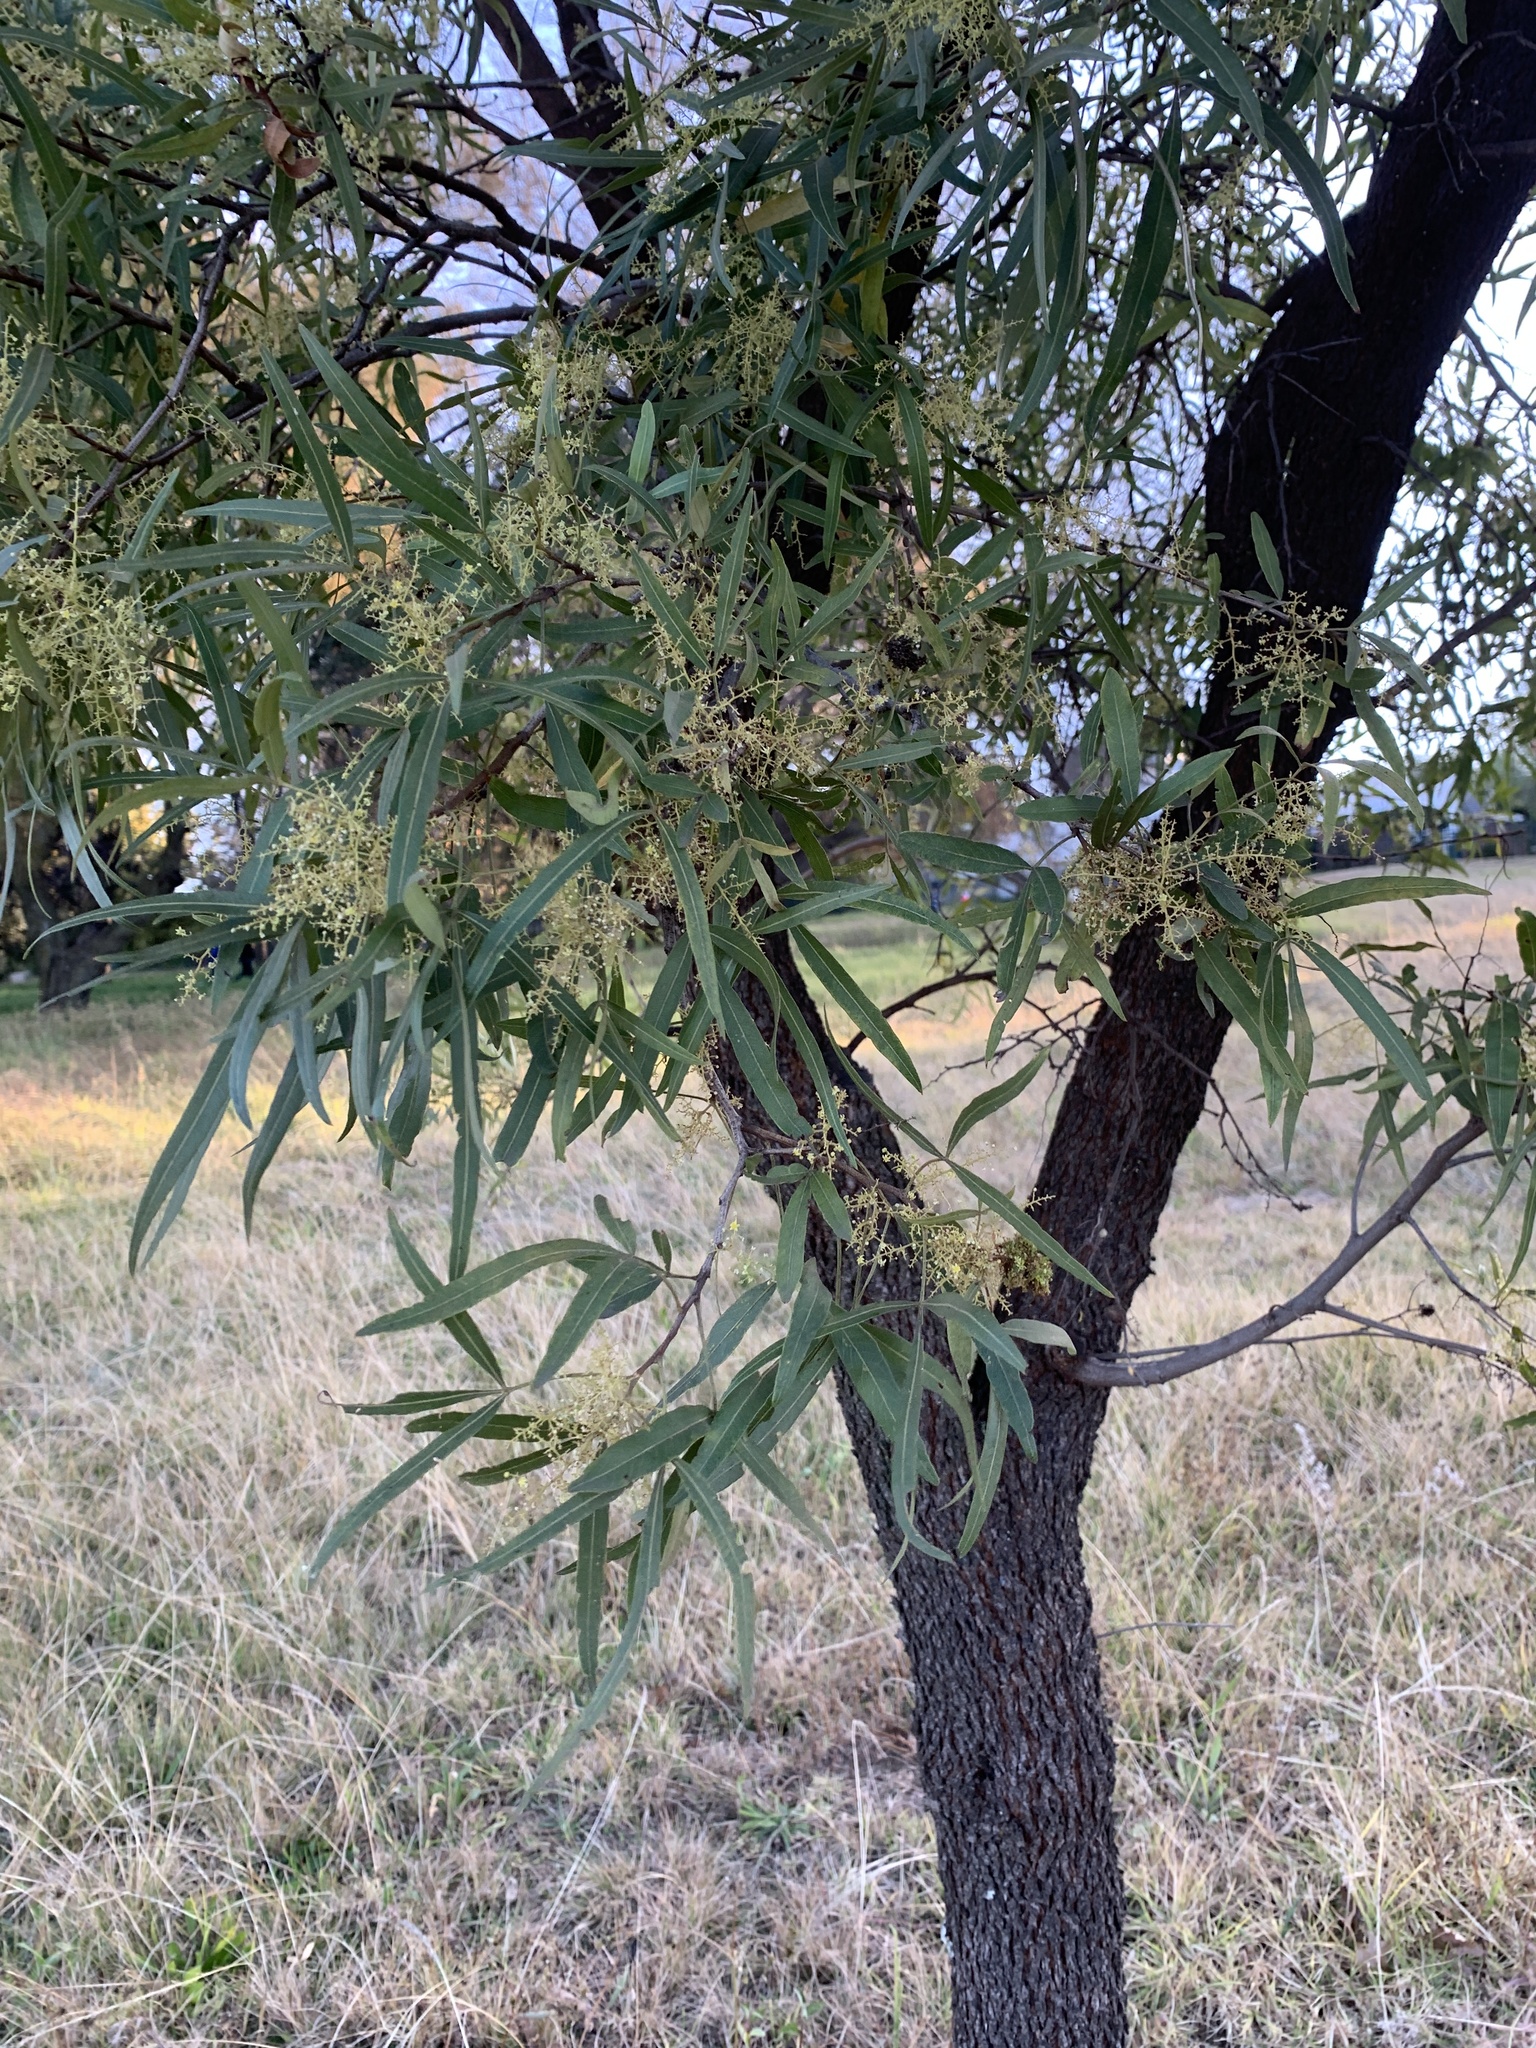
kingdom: Plantae
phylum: Tracheophyta
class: Magnoliopsida
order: Sapindales
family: Anacardiaceae
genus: Searsia
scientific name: Searsia lancea
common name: Cashew
